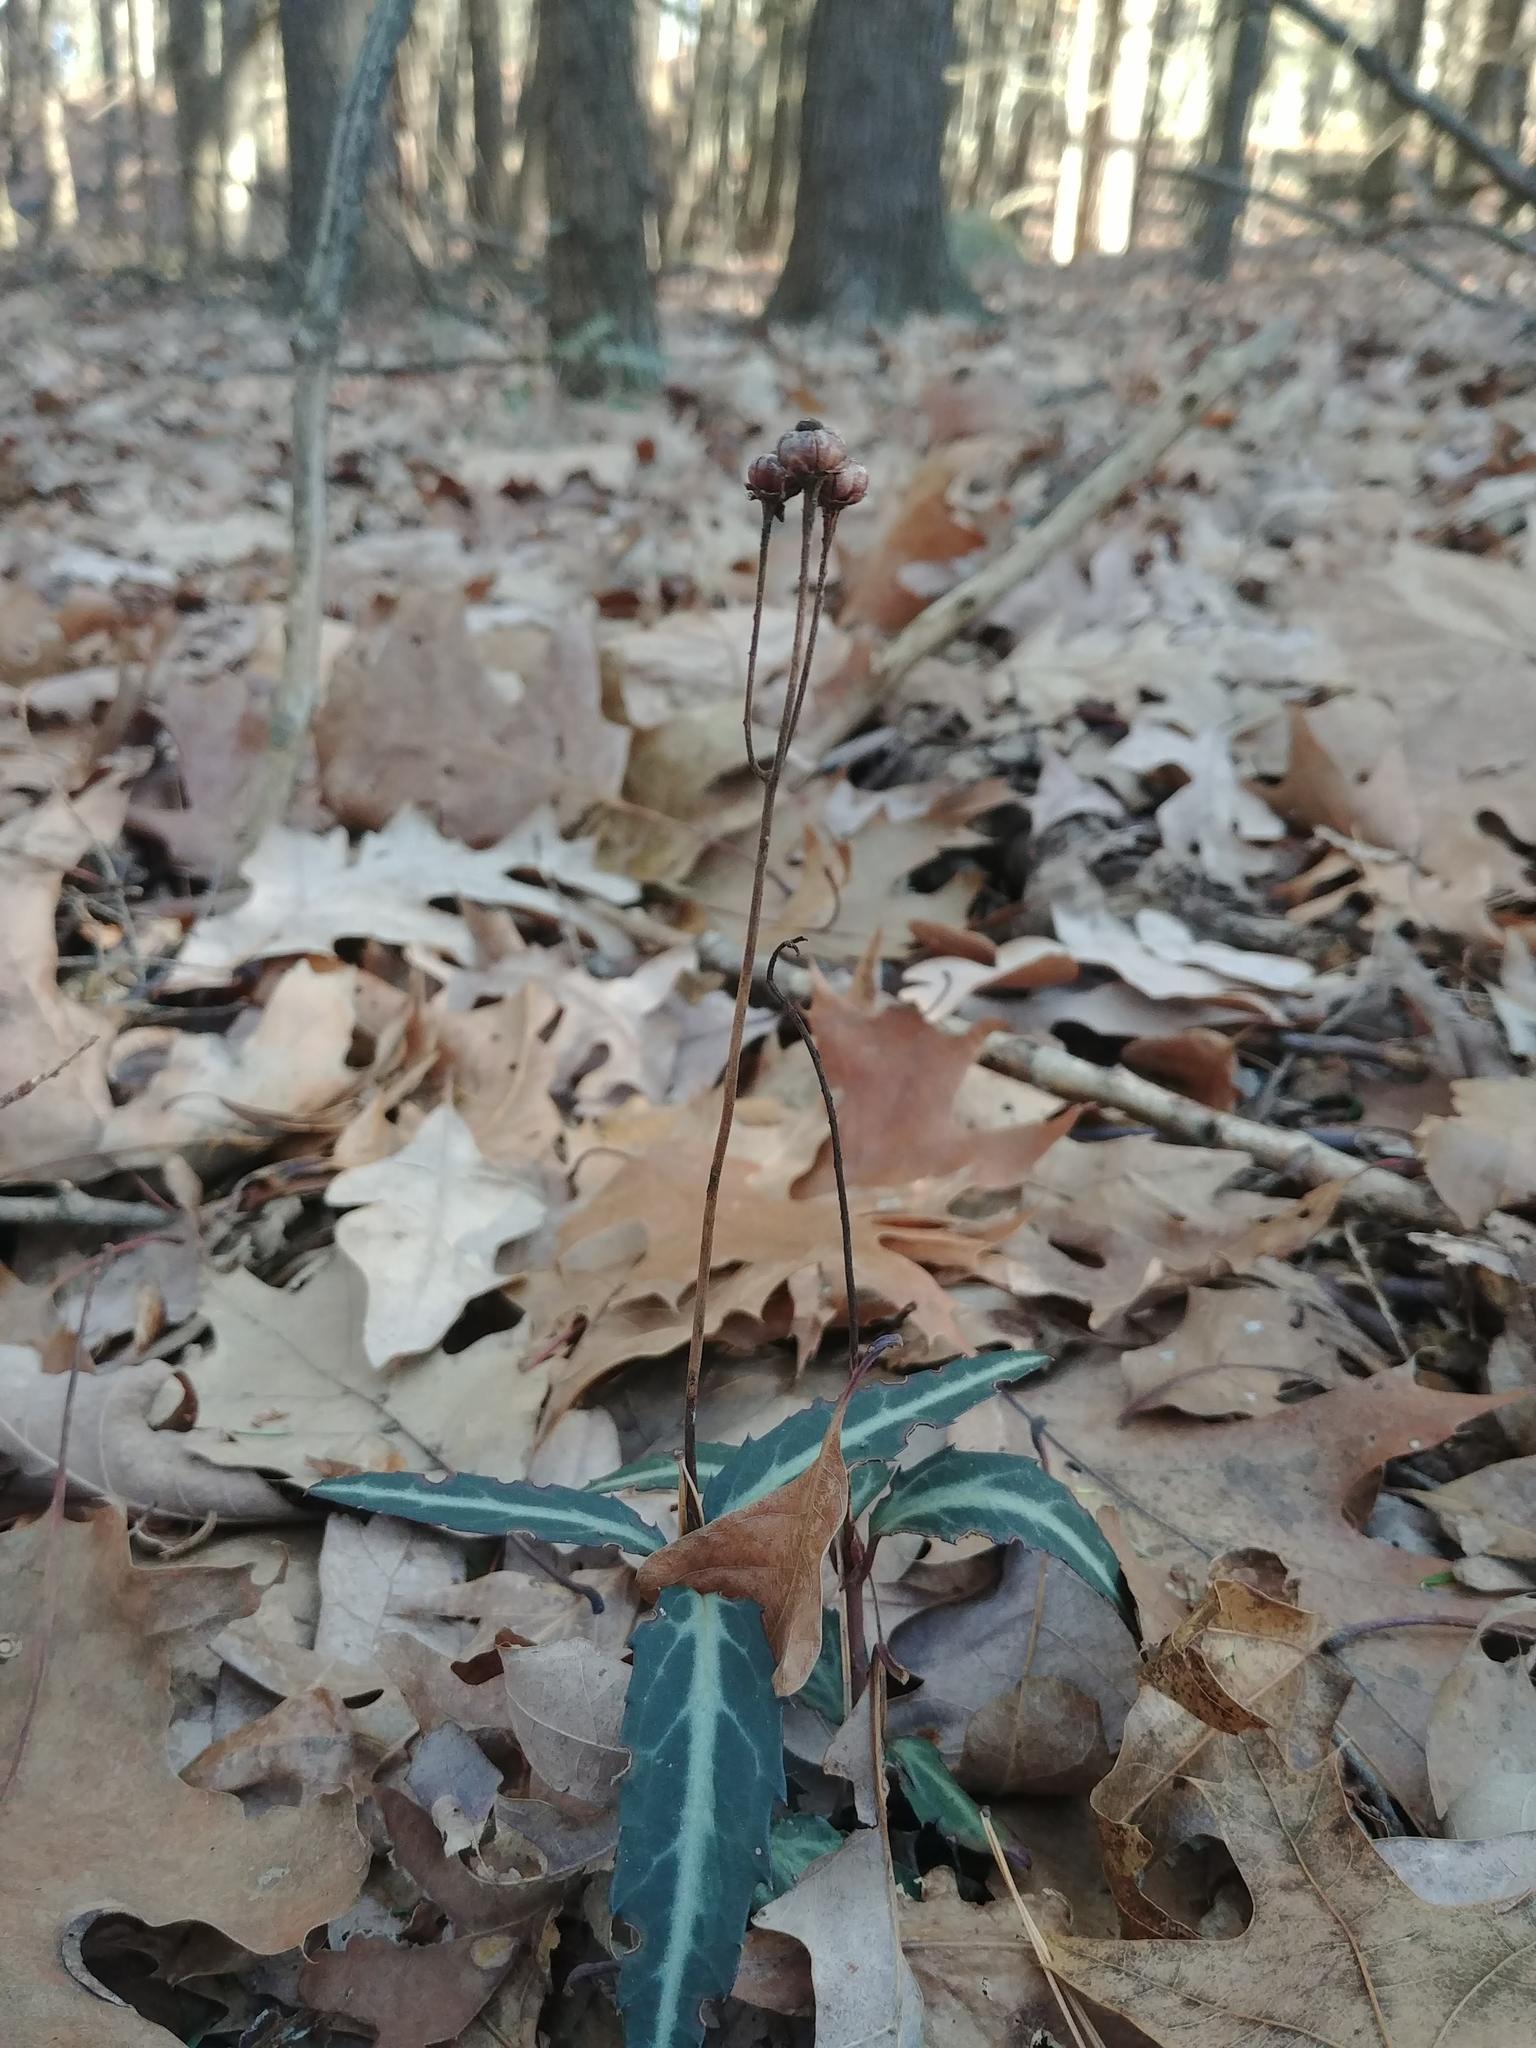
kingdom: Plantae
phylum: Tracheophyta
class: Magnoliopsida
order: Ericales
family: Ericaceae
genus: Chimaphila
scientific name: Chimaphila maculata
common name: Spotted pipsissewa
